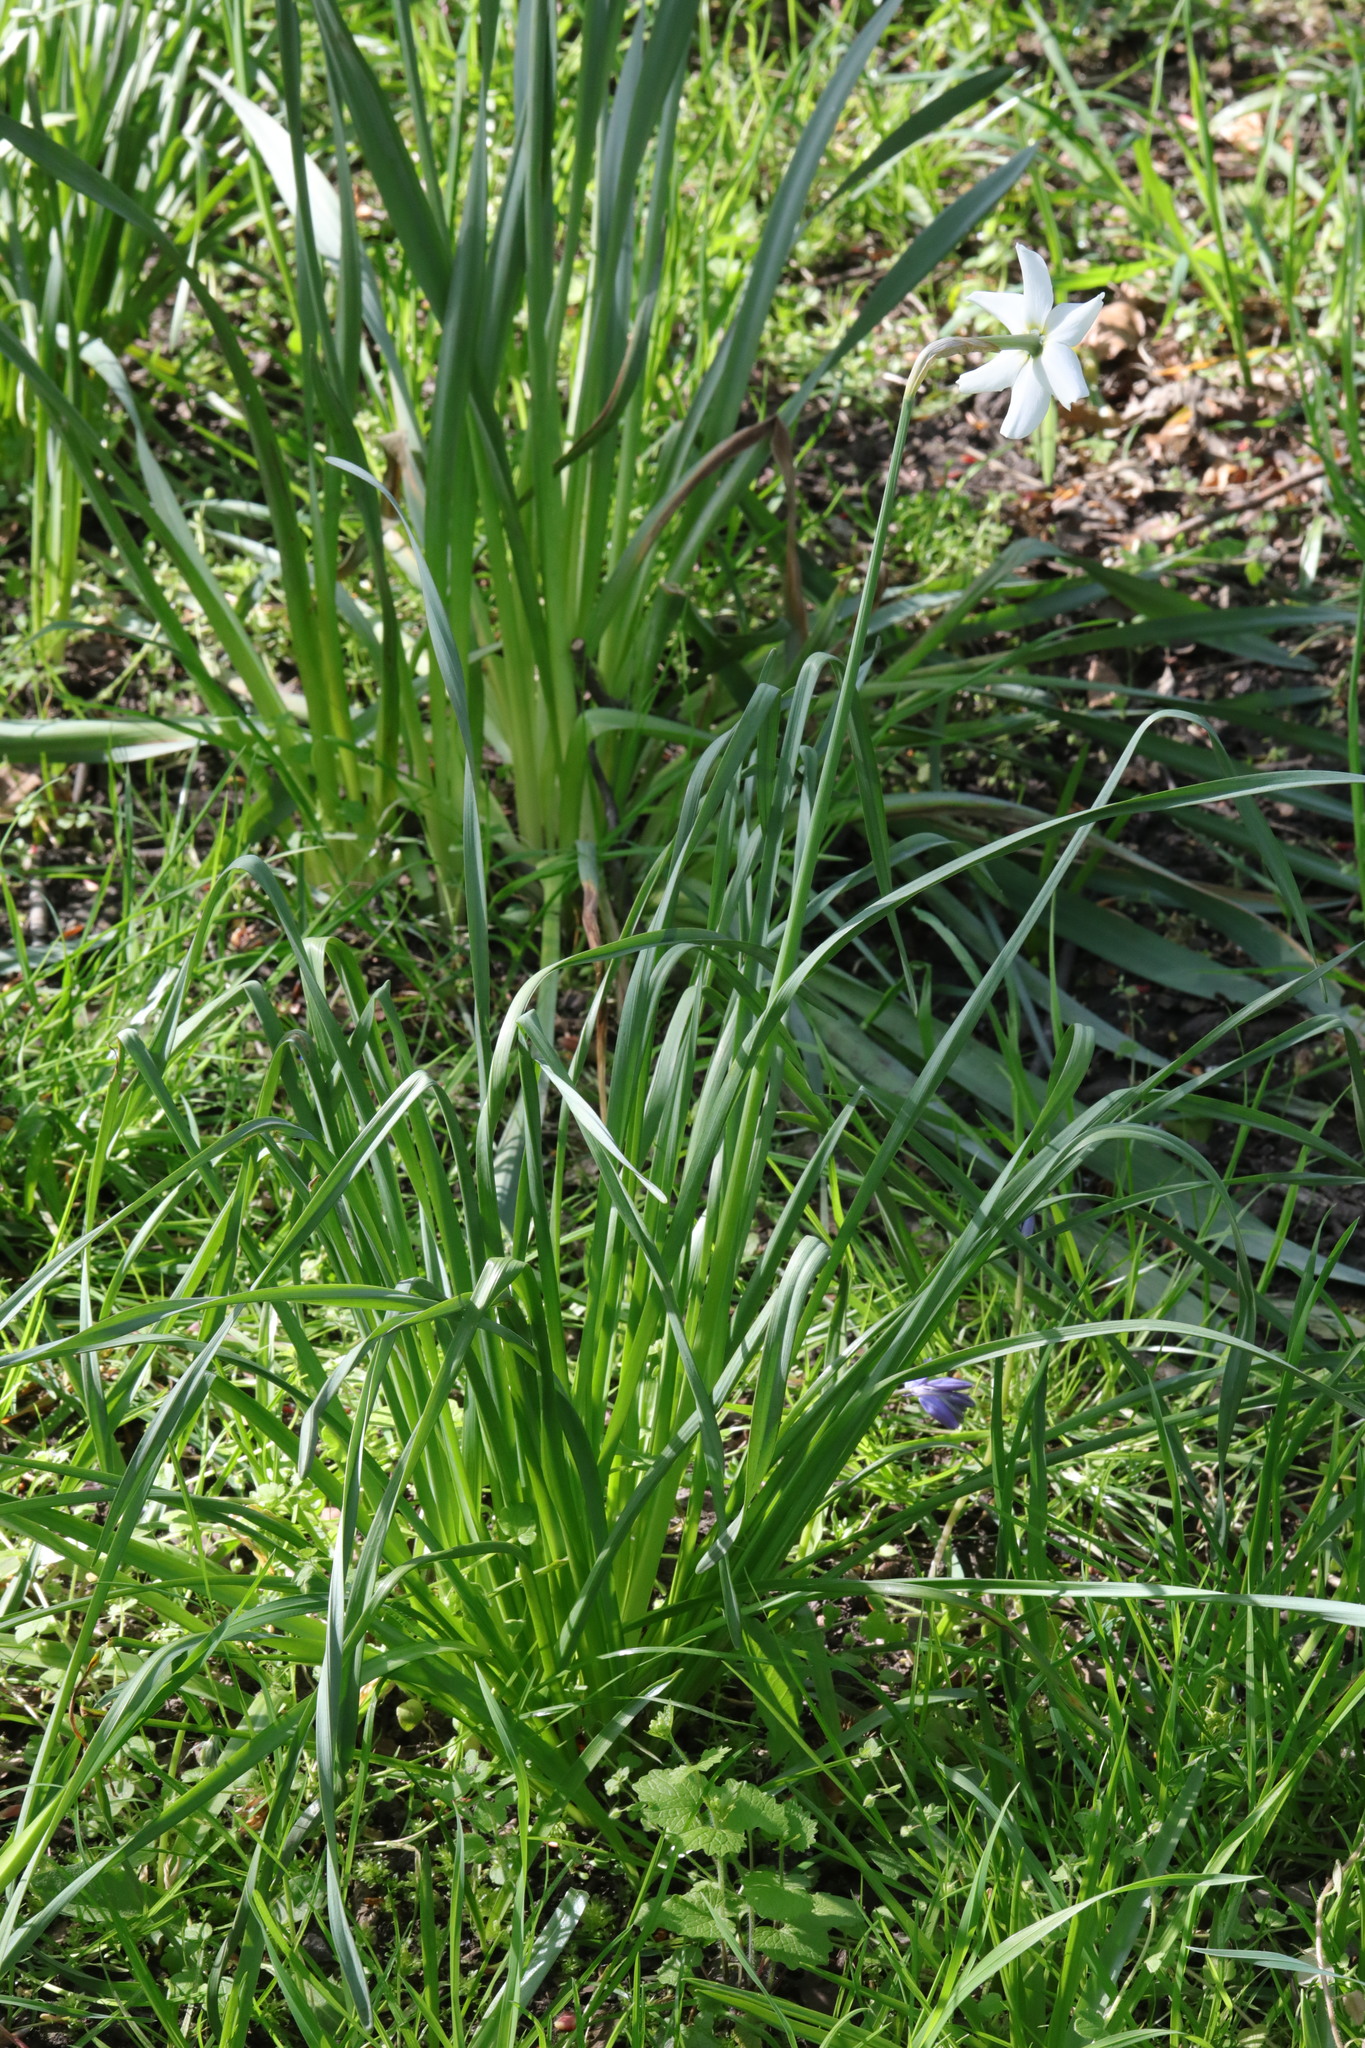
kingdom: Plantae
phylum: Tracheophyta
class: Liliopsida
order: Asparagales
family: Amaryllidaceae
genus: Narcissus
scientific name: Narcissus poeticus
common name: Pheasant's-eye daffodil
